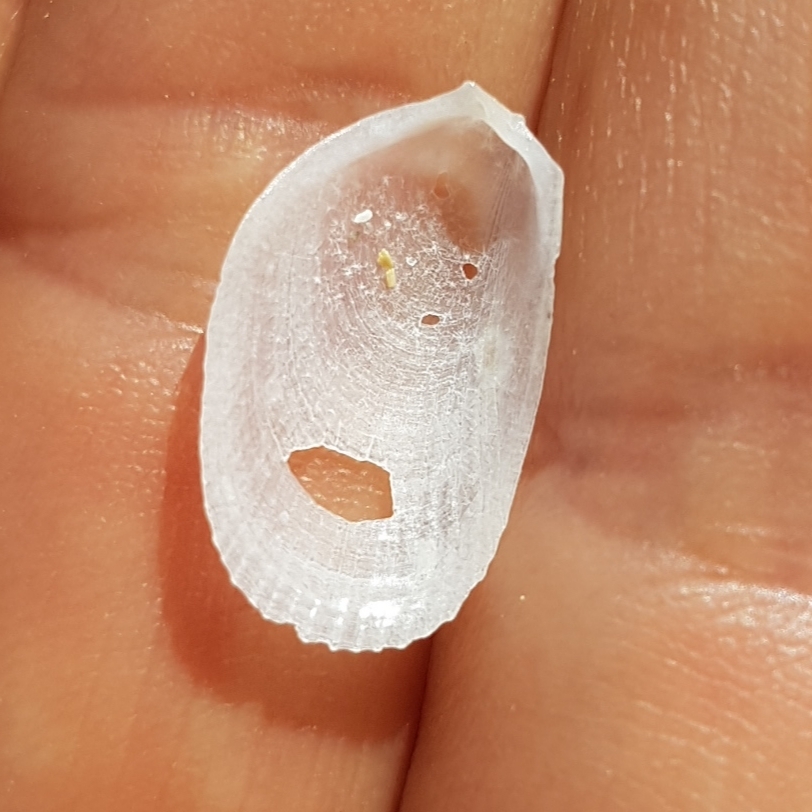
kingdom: Animalia
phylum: Mollusca
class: Bivalvia
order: Limida
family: Limidae
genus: Limaria
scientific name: Limaria hians
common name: Gaping file shale
